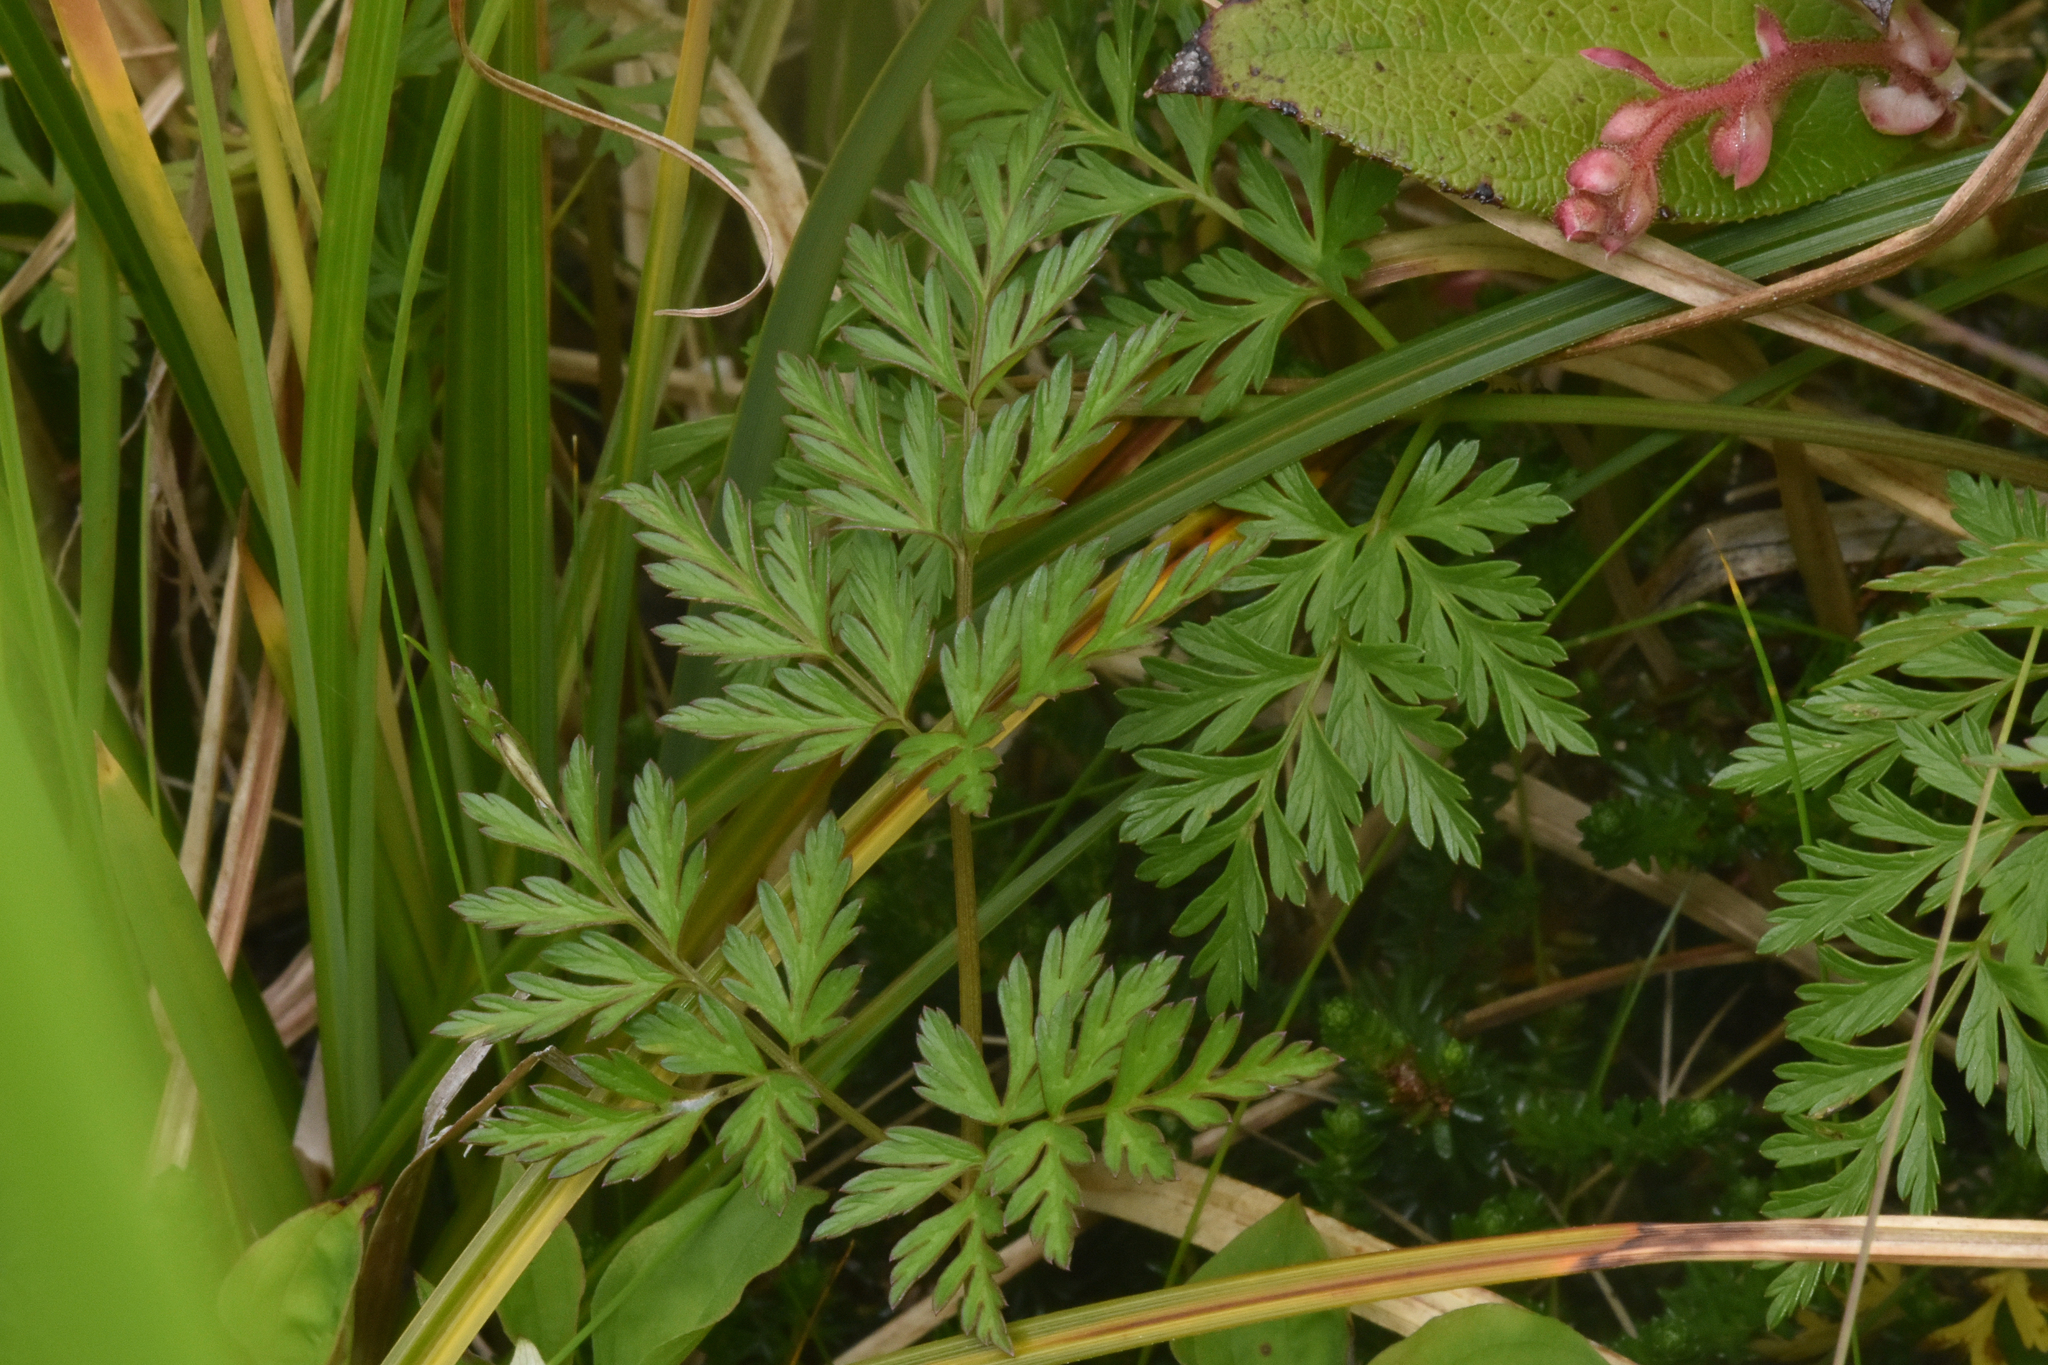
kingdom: Plantae
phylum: Tracheophyta
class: Magnoliopsida
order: Apiales
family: Apiaceae
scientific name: Apiaceae
